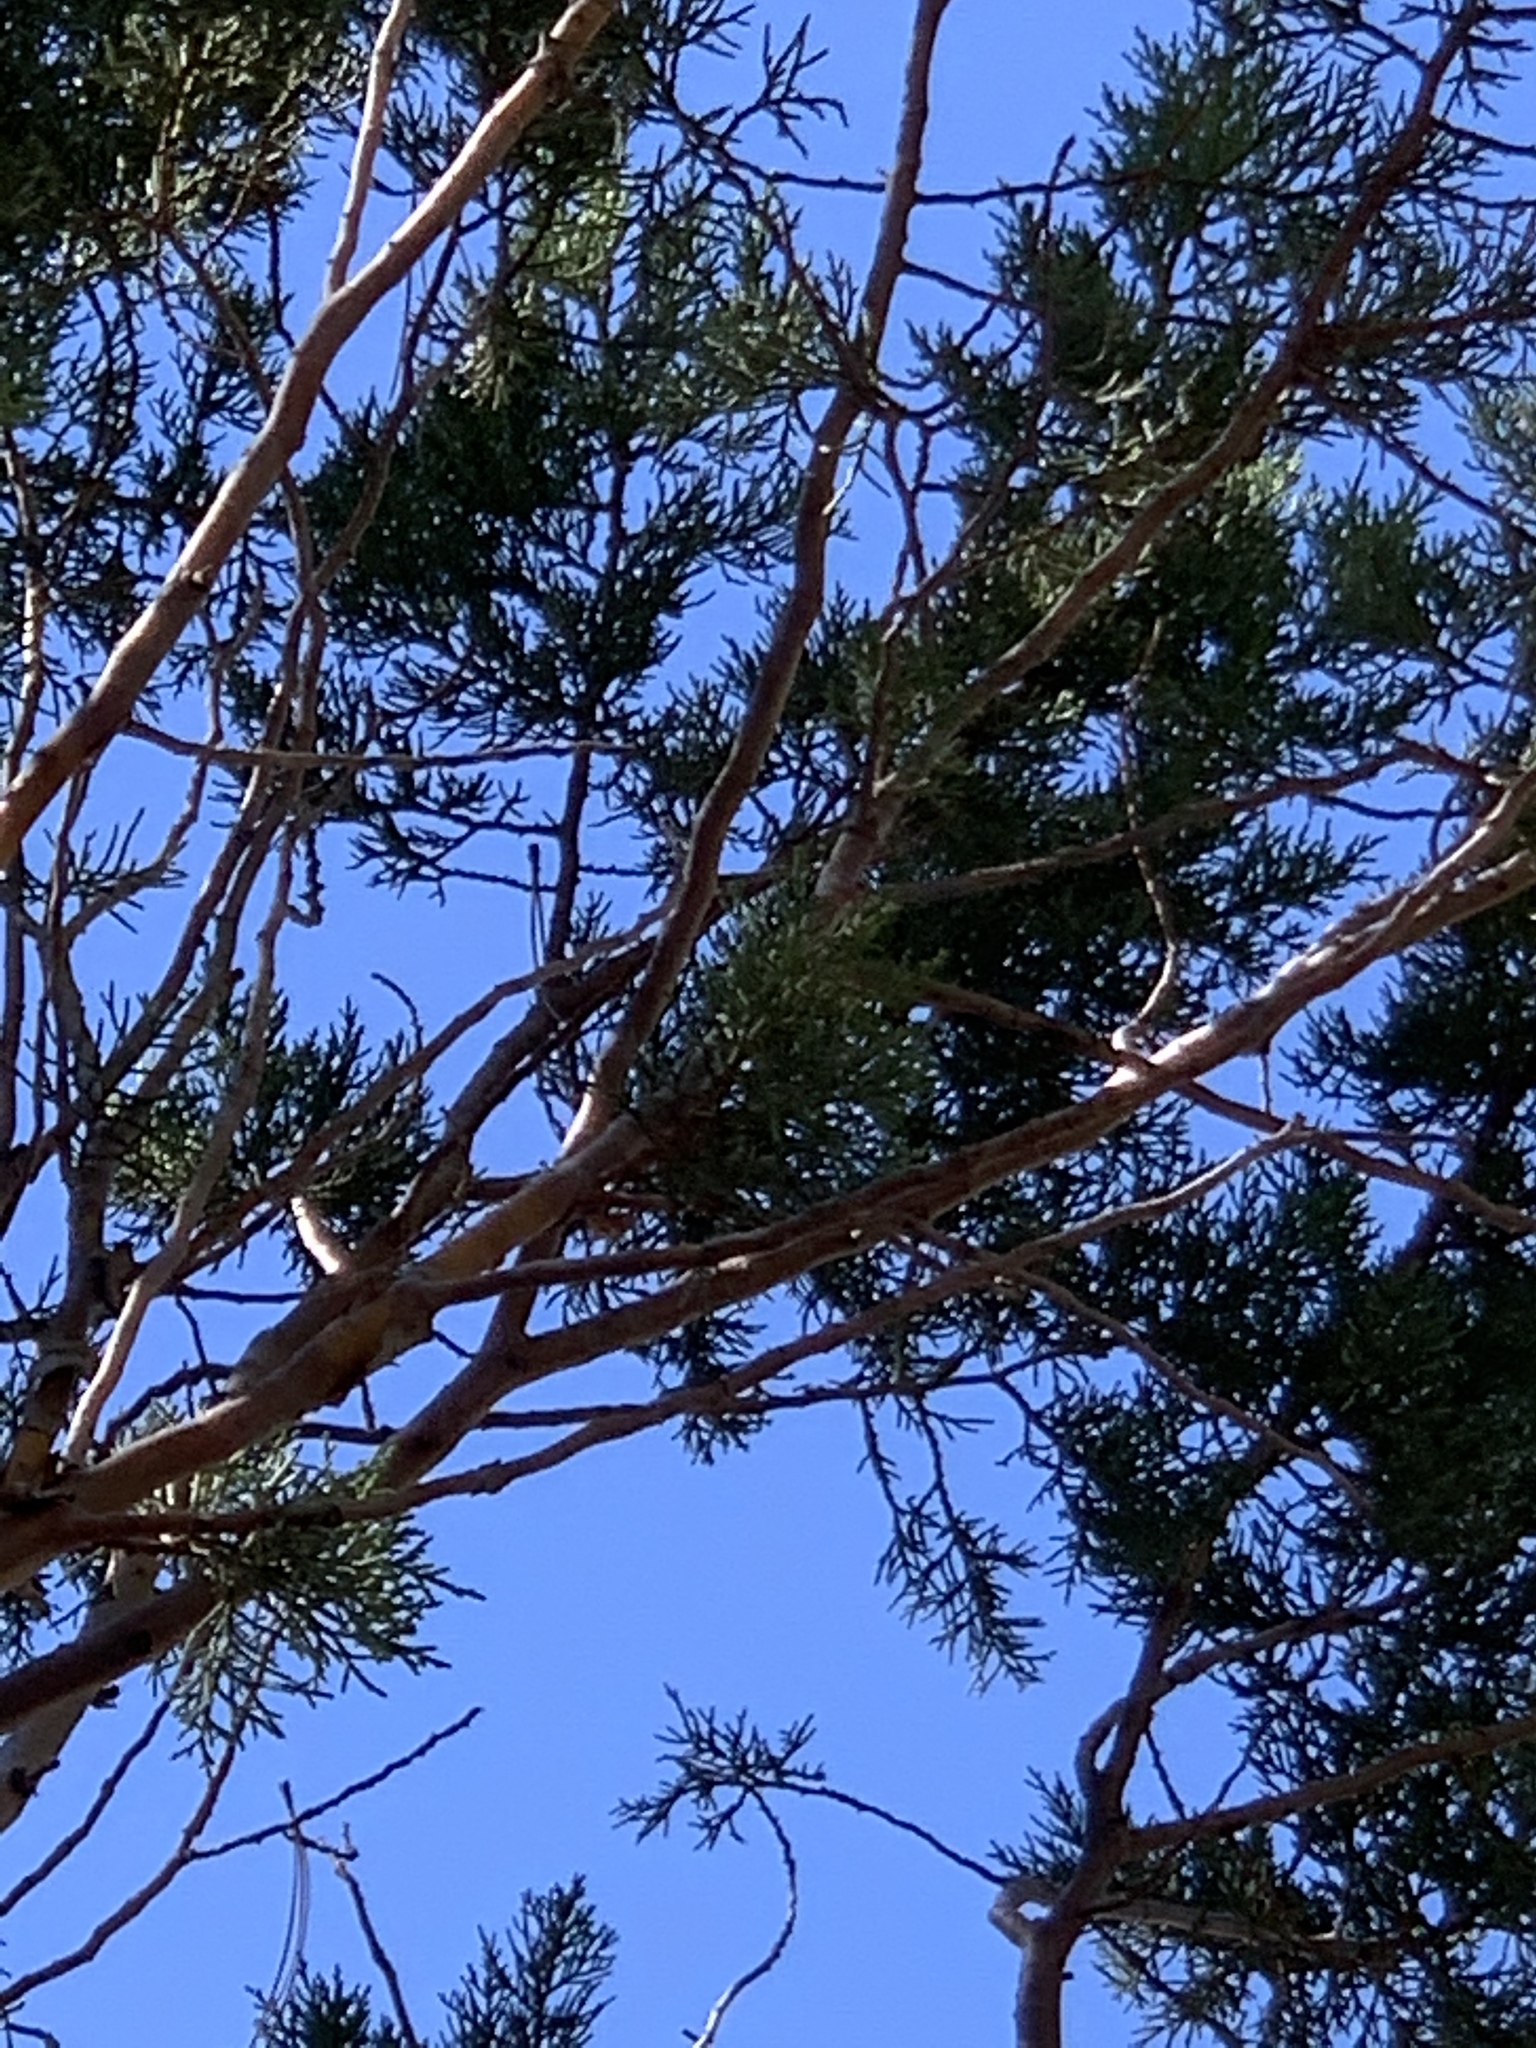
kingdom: Plantae
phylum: Tracheophyta
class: Pinopsida
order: Pinales
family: Cupressaceae
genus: Juniperus
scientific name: Juniperus deppeana
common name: Alligator juniper
